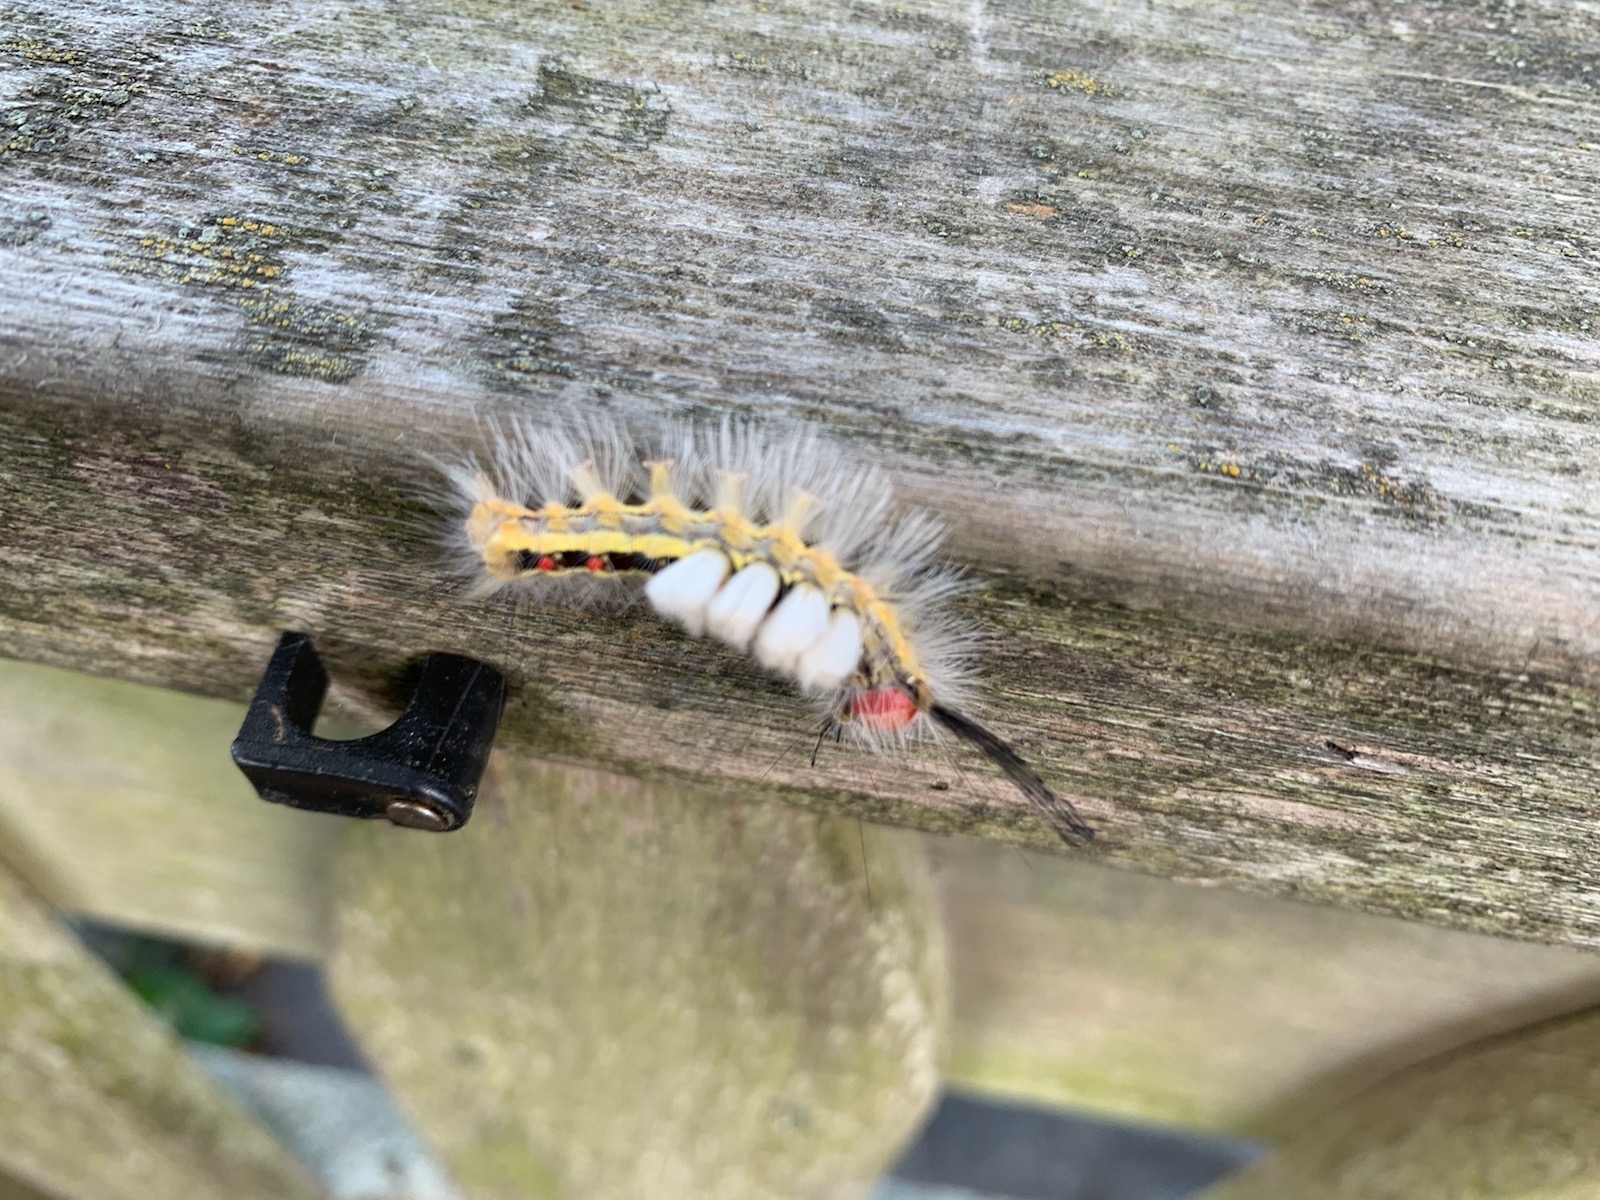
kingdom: Animalia
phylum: Arthropoda
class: Insecta
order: Lepidoptera
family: Erebidae
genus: Orgyia
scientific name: Orgyia leucostigma
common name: White-marked tussock moth
